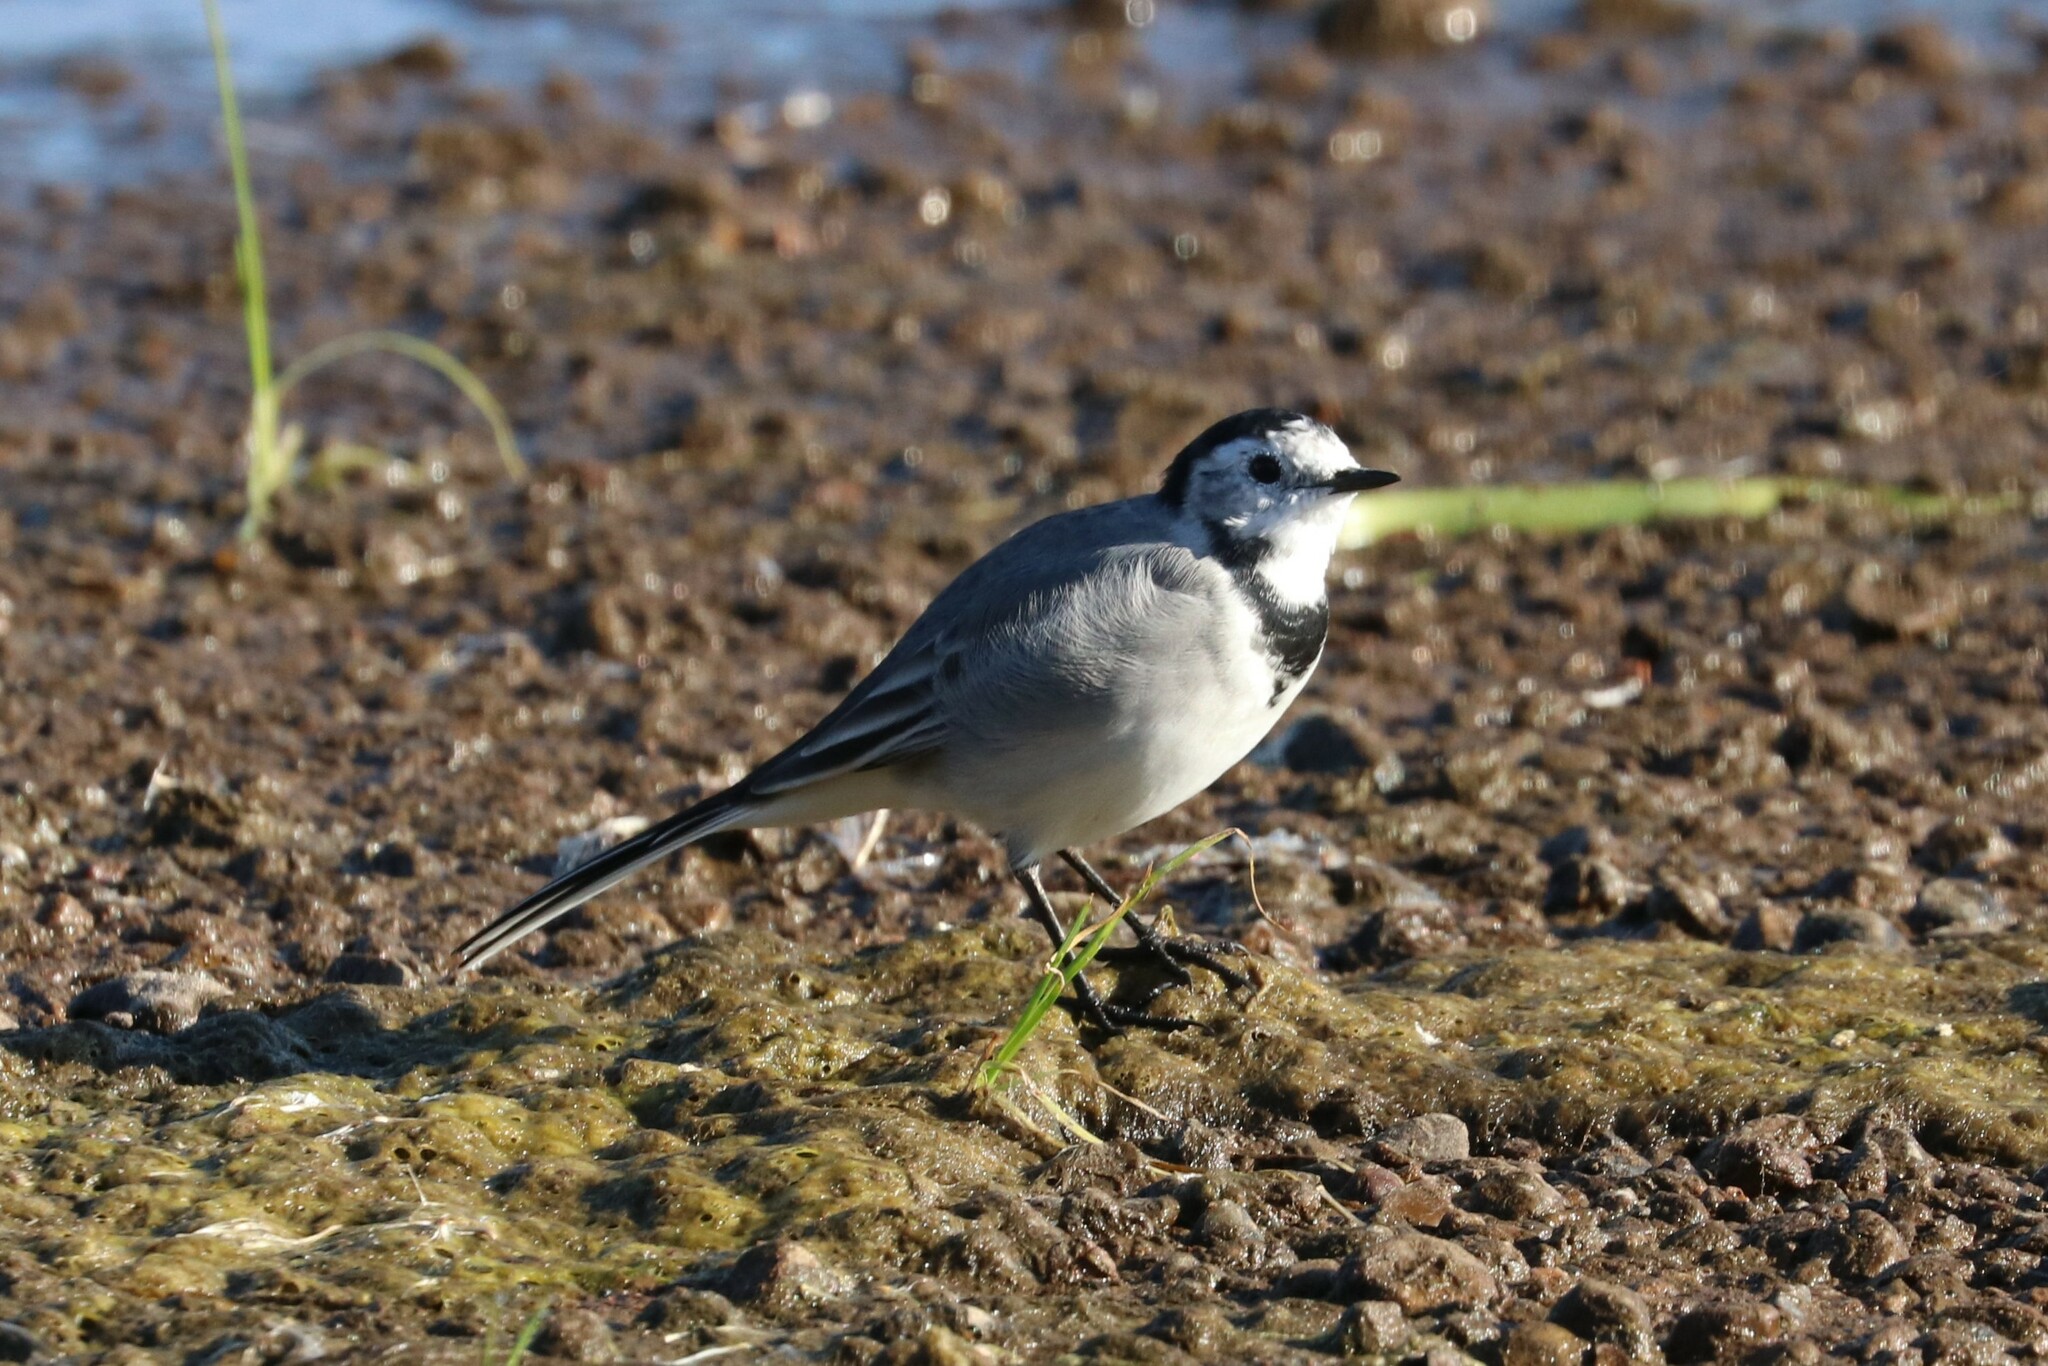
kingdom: Animalia
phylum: Chordata
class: Aves
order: Passeriformes
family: Motacillidae
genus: Motacilla
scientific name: Motacilla alba
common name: White wagtail
